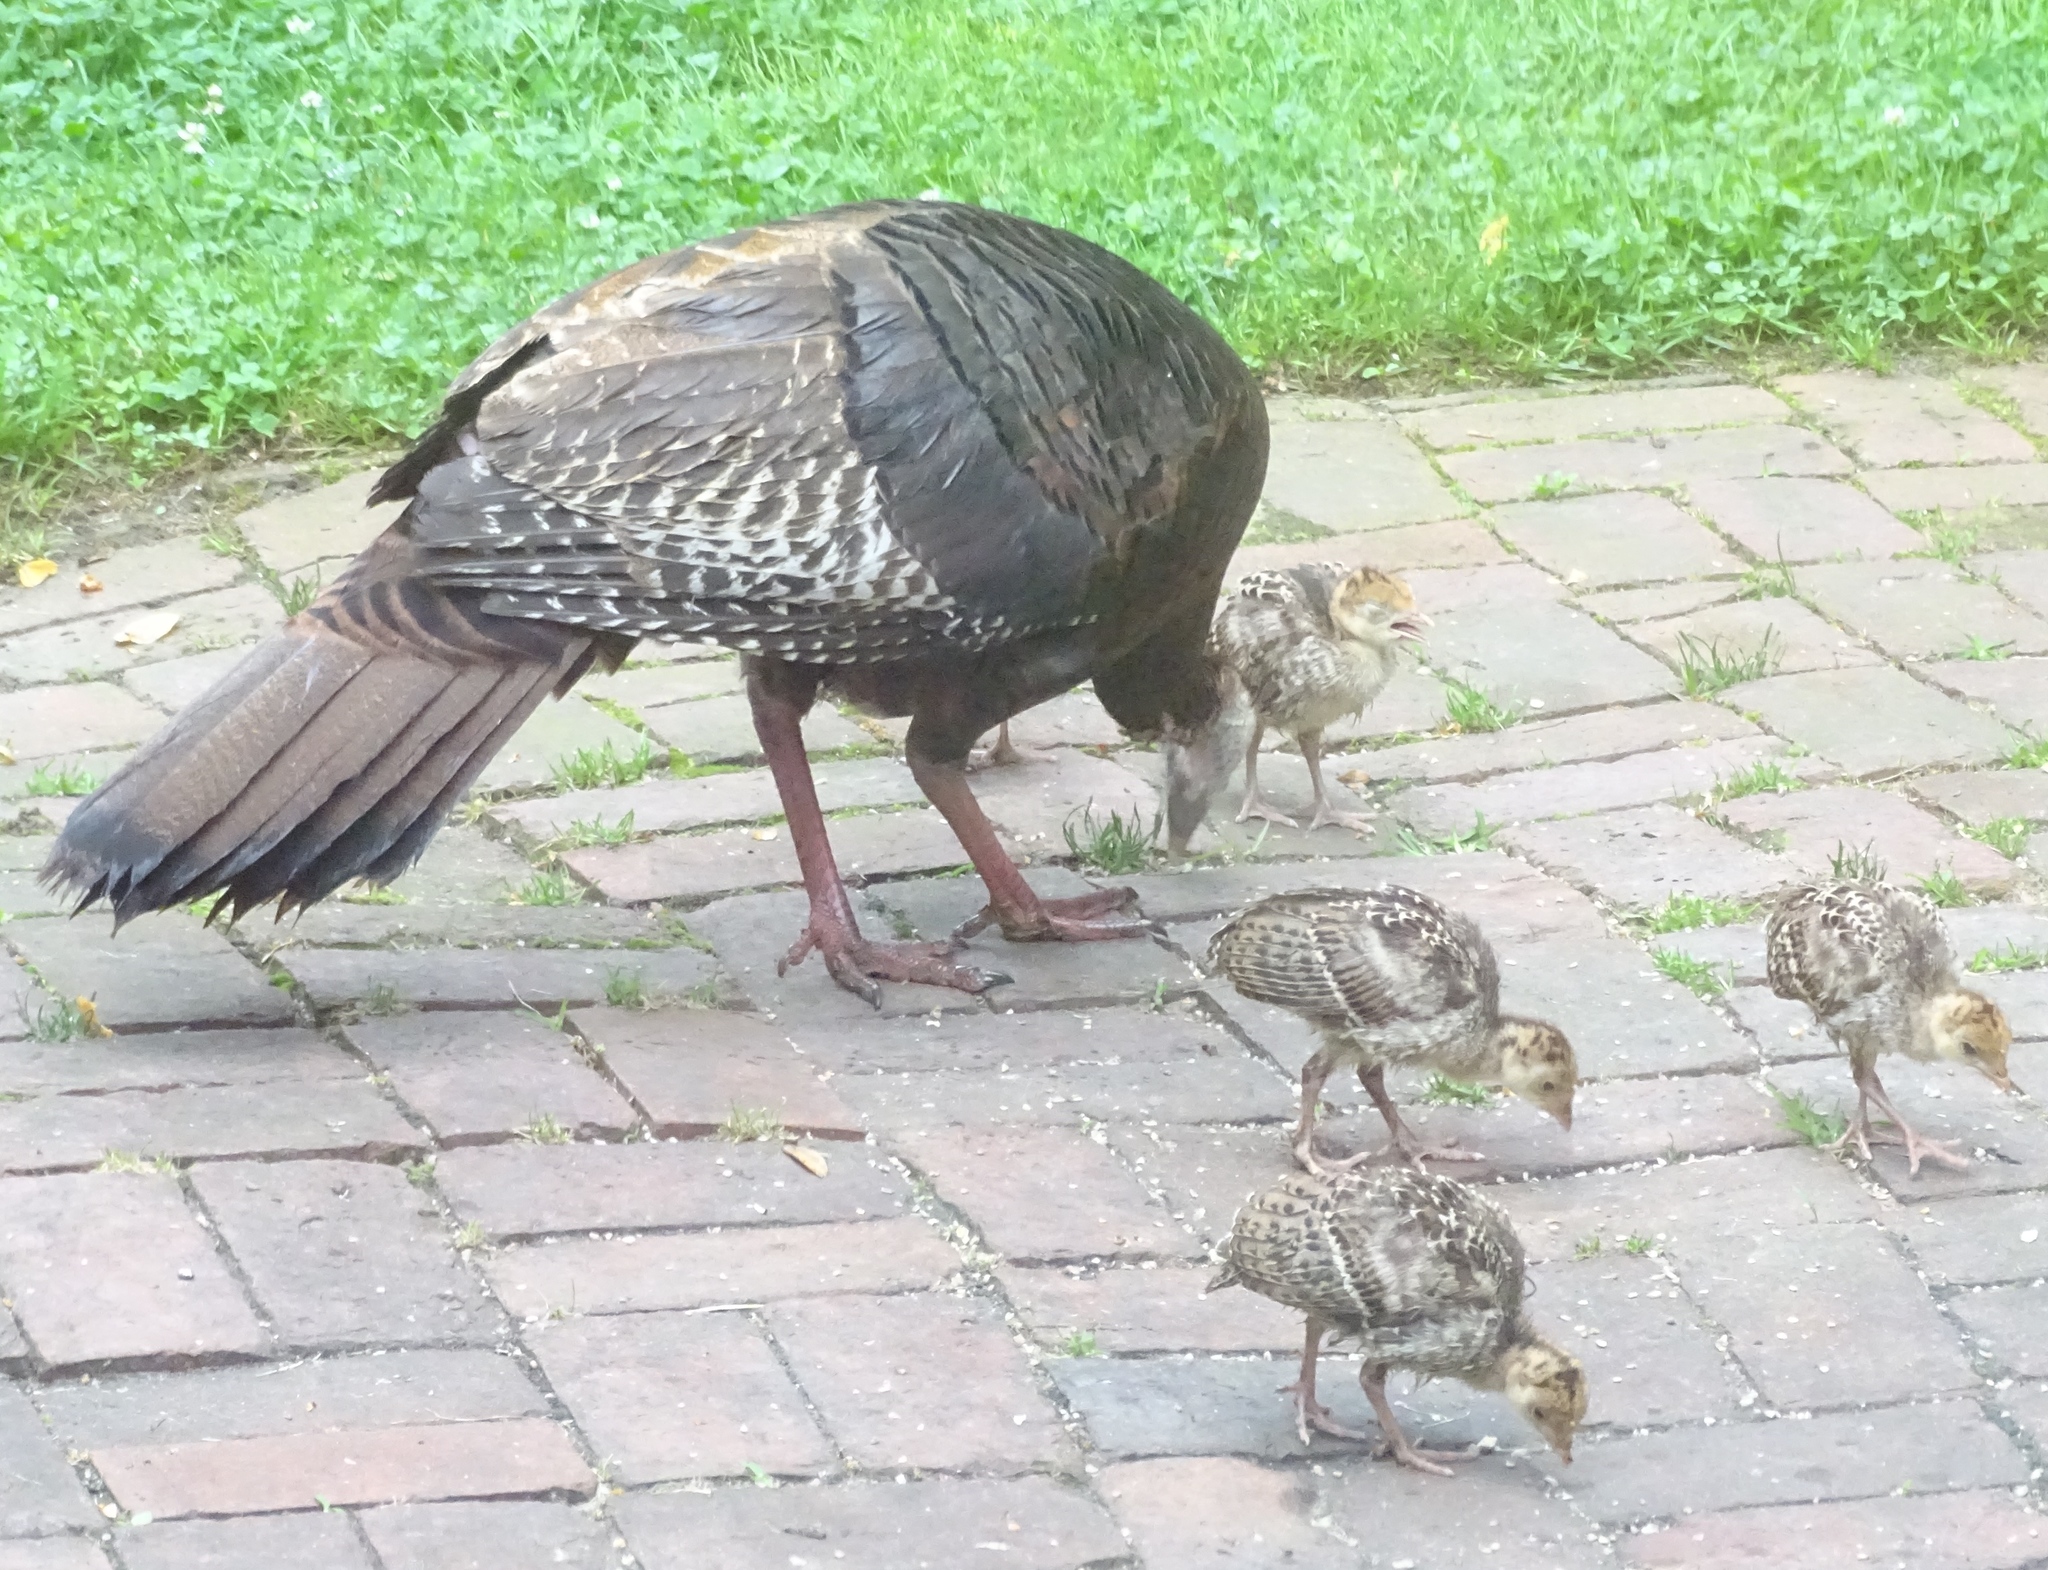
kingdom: Animalia
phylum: Chordata
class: Aves
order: Galliformes
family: Phasianidae
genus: Meleagris
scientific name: Meleagris gallopavo
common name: Wild turkey
